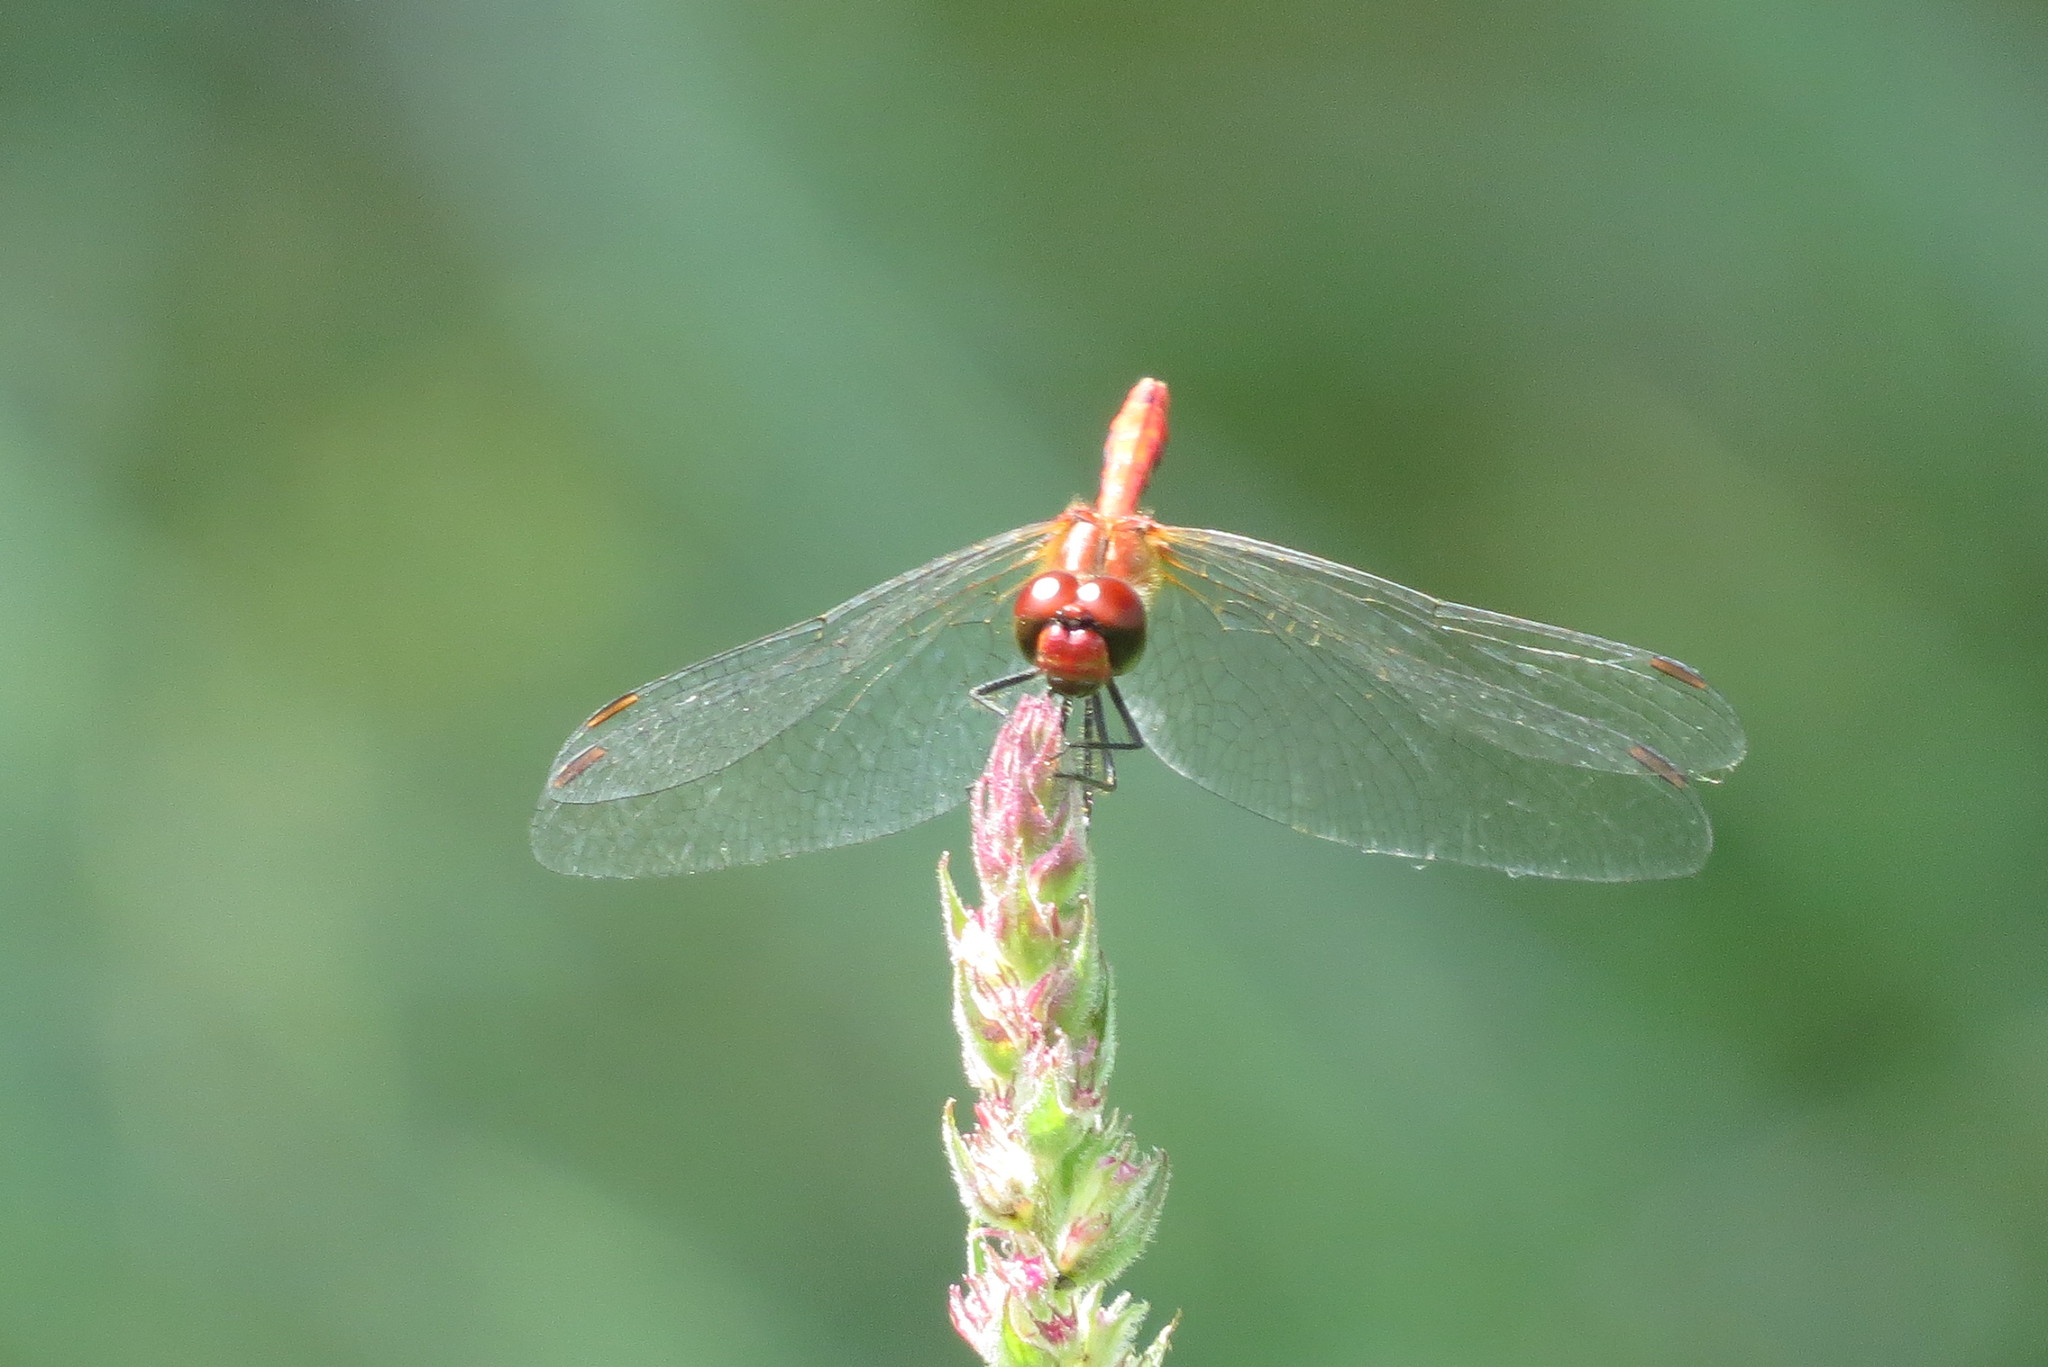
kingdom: Animalia
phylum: Arthropoda
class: Insecta
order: Odonata
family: Libellulidae
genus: Sympetrum
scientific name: Sympetrum sanguineum
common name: Ruddy darter
